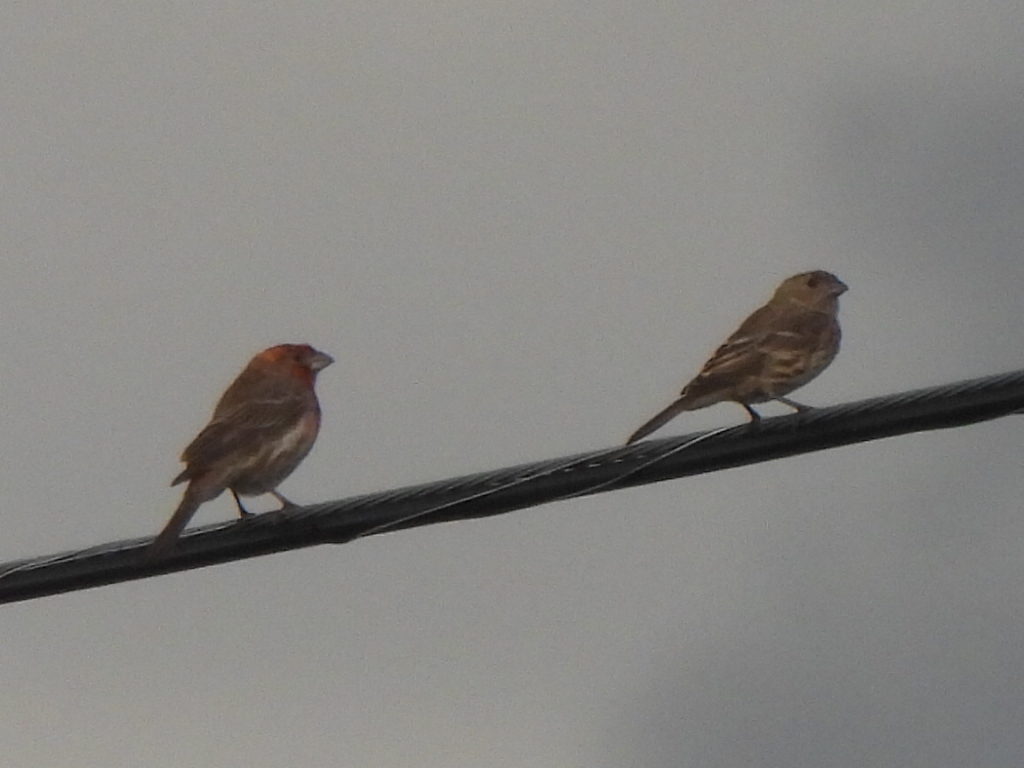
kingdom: Animalia
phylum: Chordata
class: Aves
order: Passeriformes
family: Fringillidae
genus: Haemorhous
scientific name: Haemorhous mexicanus
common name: House finch
